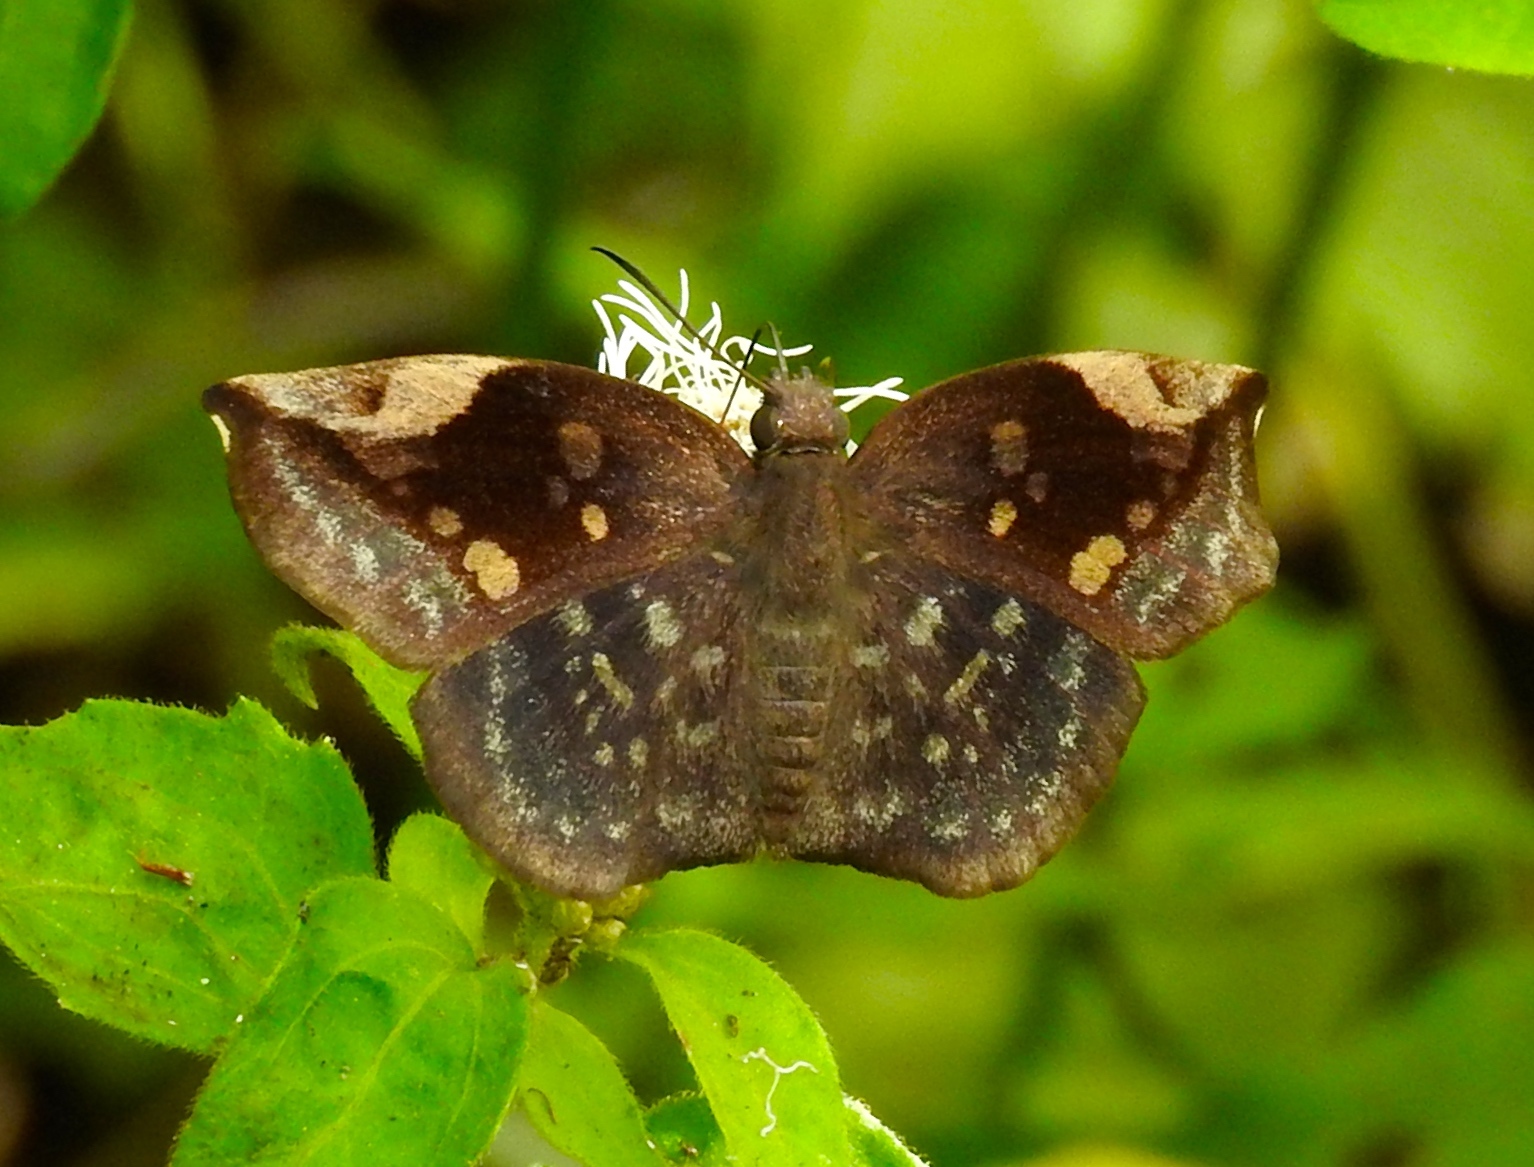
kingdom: Animalia
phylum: Arthropoda
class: Insecta
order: Lepidoptera
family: Hesperiidae
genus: Achlyodes
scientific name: Achlyodes thraso
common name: Sickle-winged skipper
